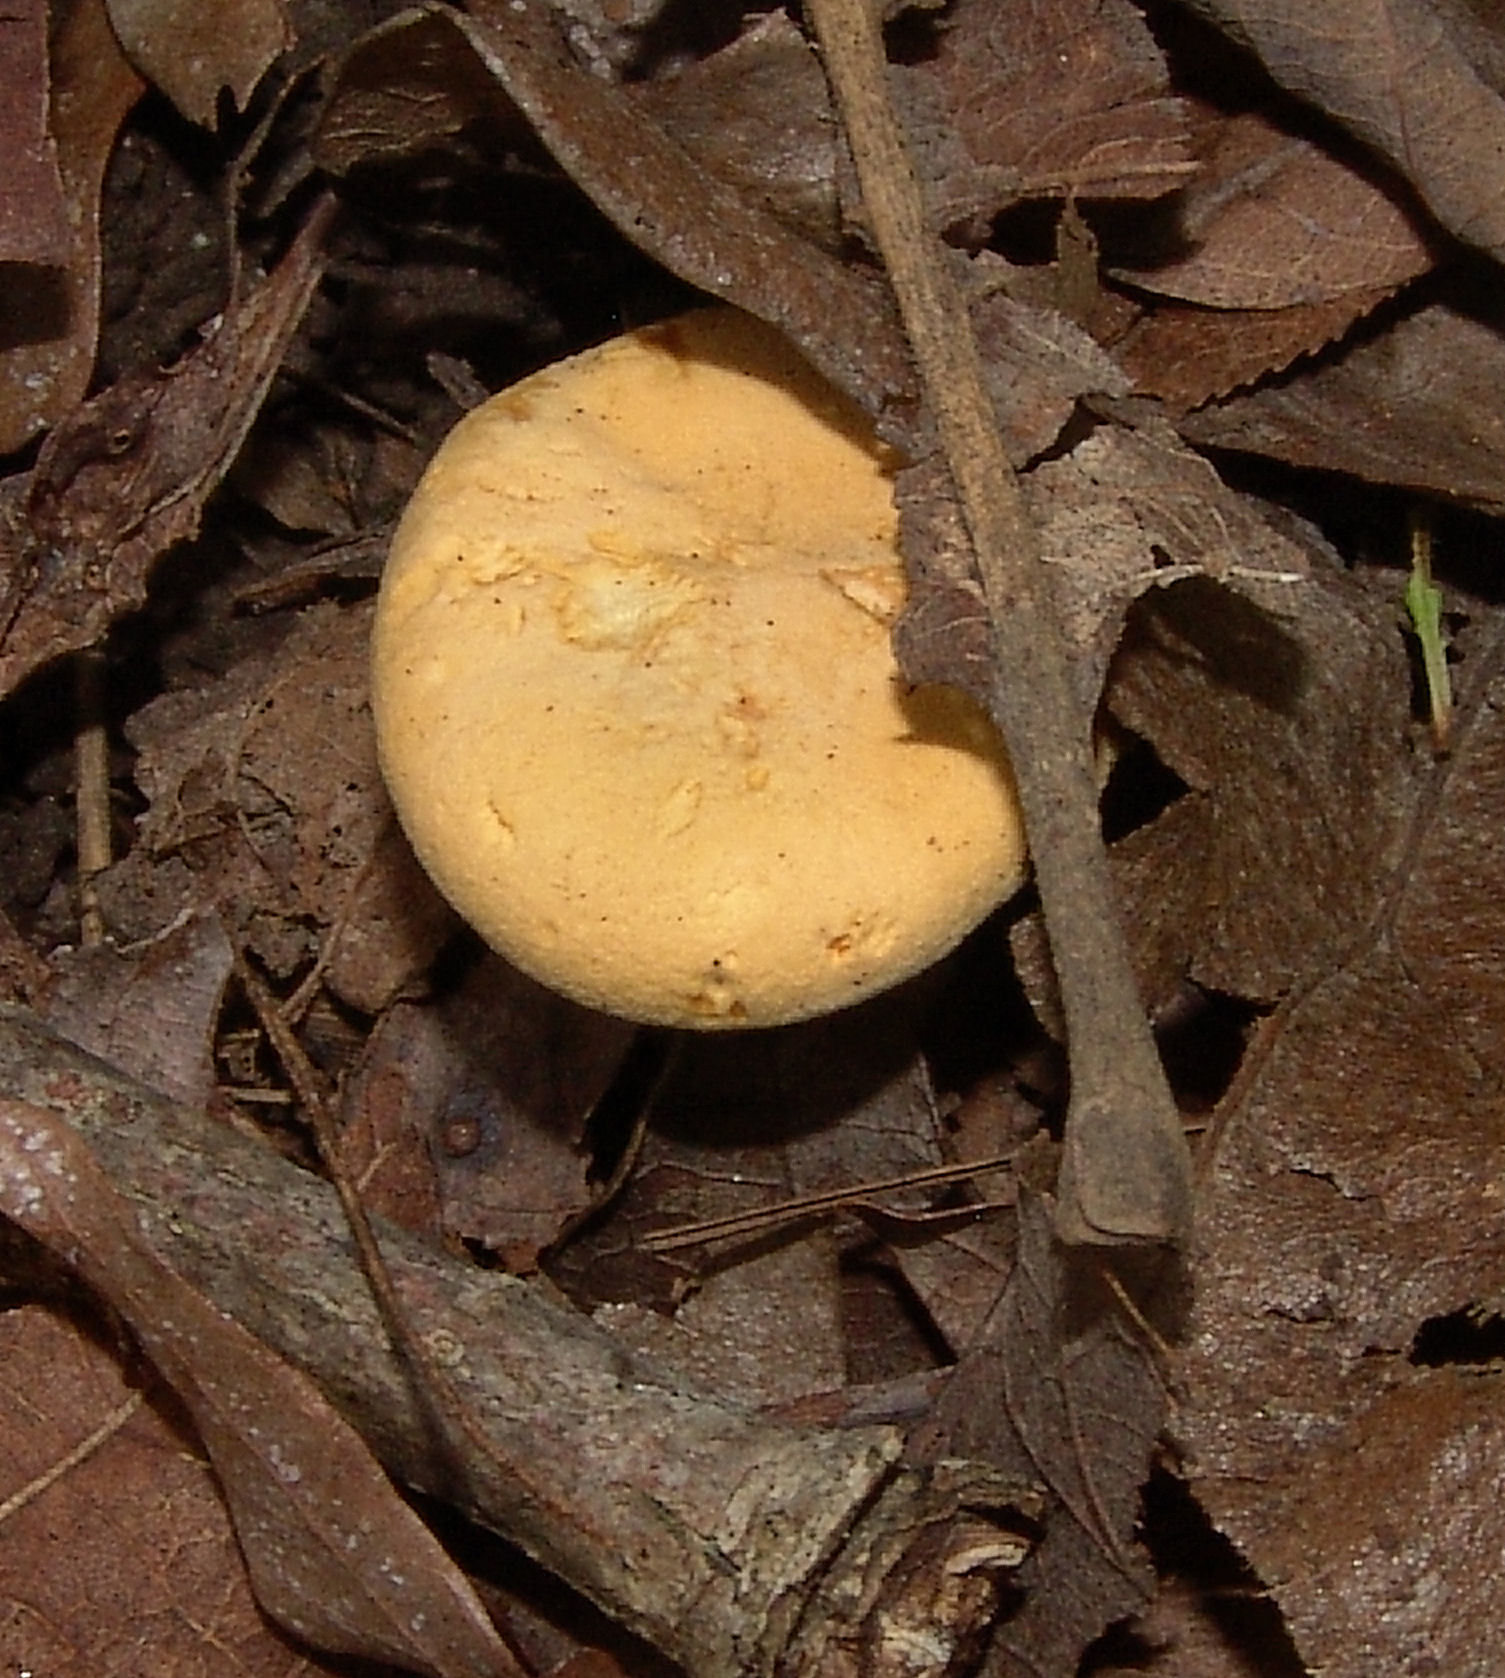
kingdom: Fungi
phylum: Basidiomycota
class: Agaricomycetes
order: Cantharellales
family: Hydnaceae
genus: Cantharellus
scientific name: Cantharellus lateritius
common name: Smooth chanterelle
